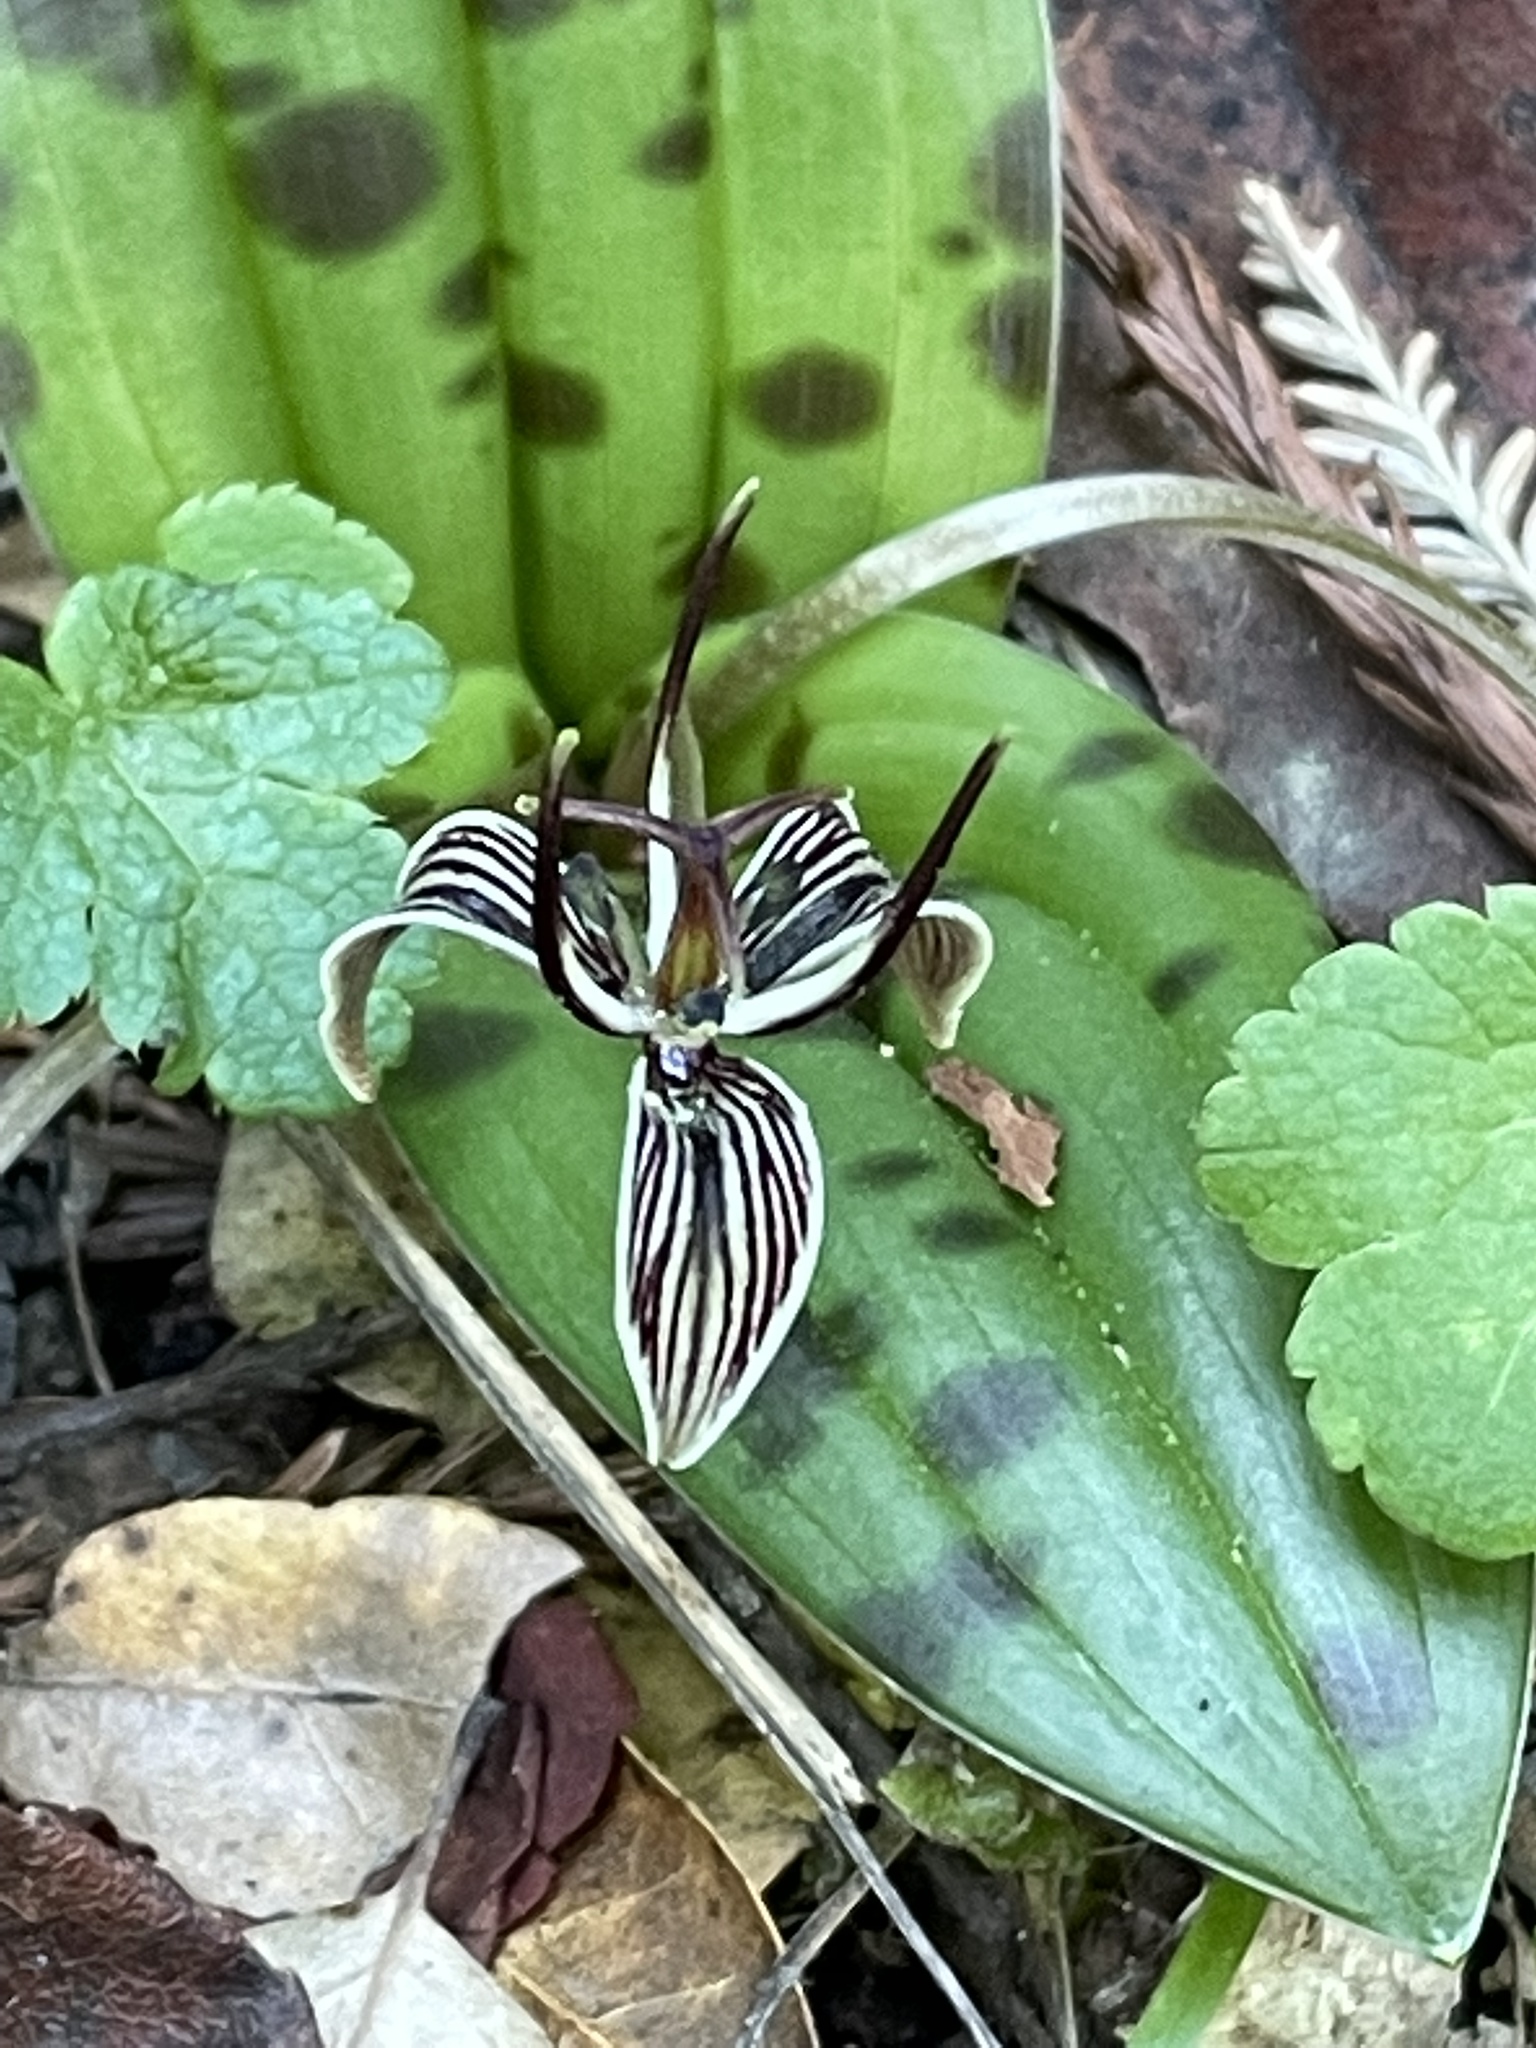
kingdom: Plantae
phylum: Tracheophyta
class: Liliopsida
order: Liliales
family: Liliaceae
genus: Scoliopus
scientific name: Scoliopus bigelovii
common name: Foetid adder's-tongue
